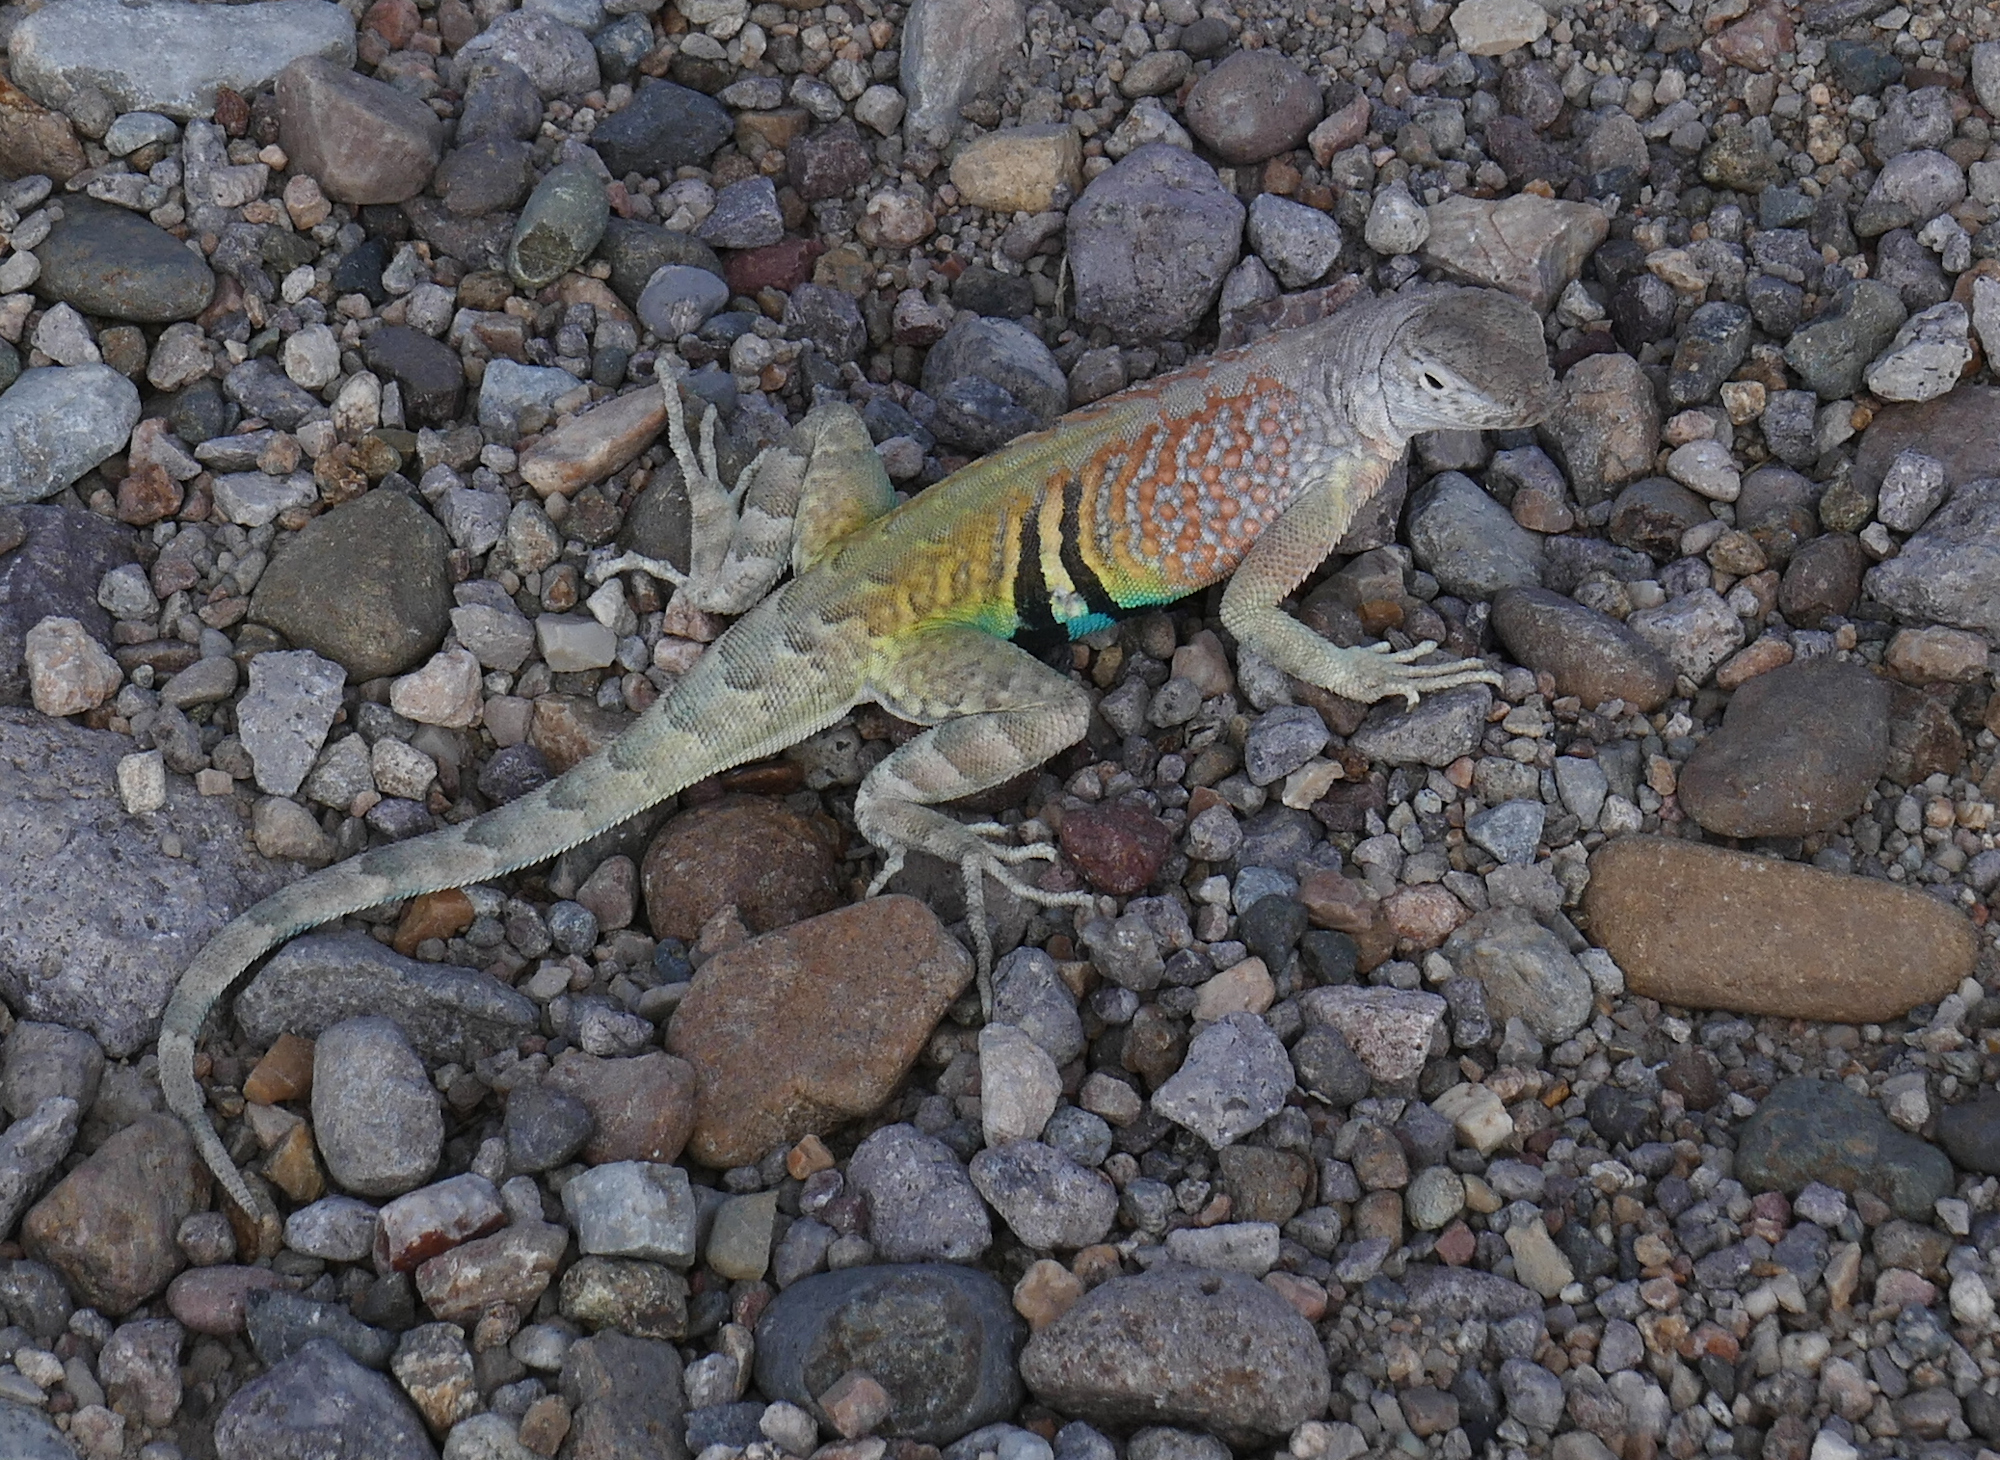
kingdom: Animalia
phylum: Chordata
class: Squamata
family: Phrynosomatidae
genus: Cophosaurus
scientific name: Cophosaurus texanus
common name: Greater earless lizard
